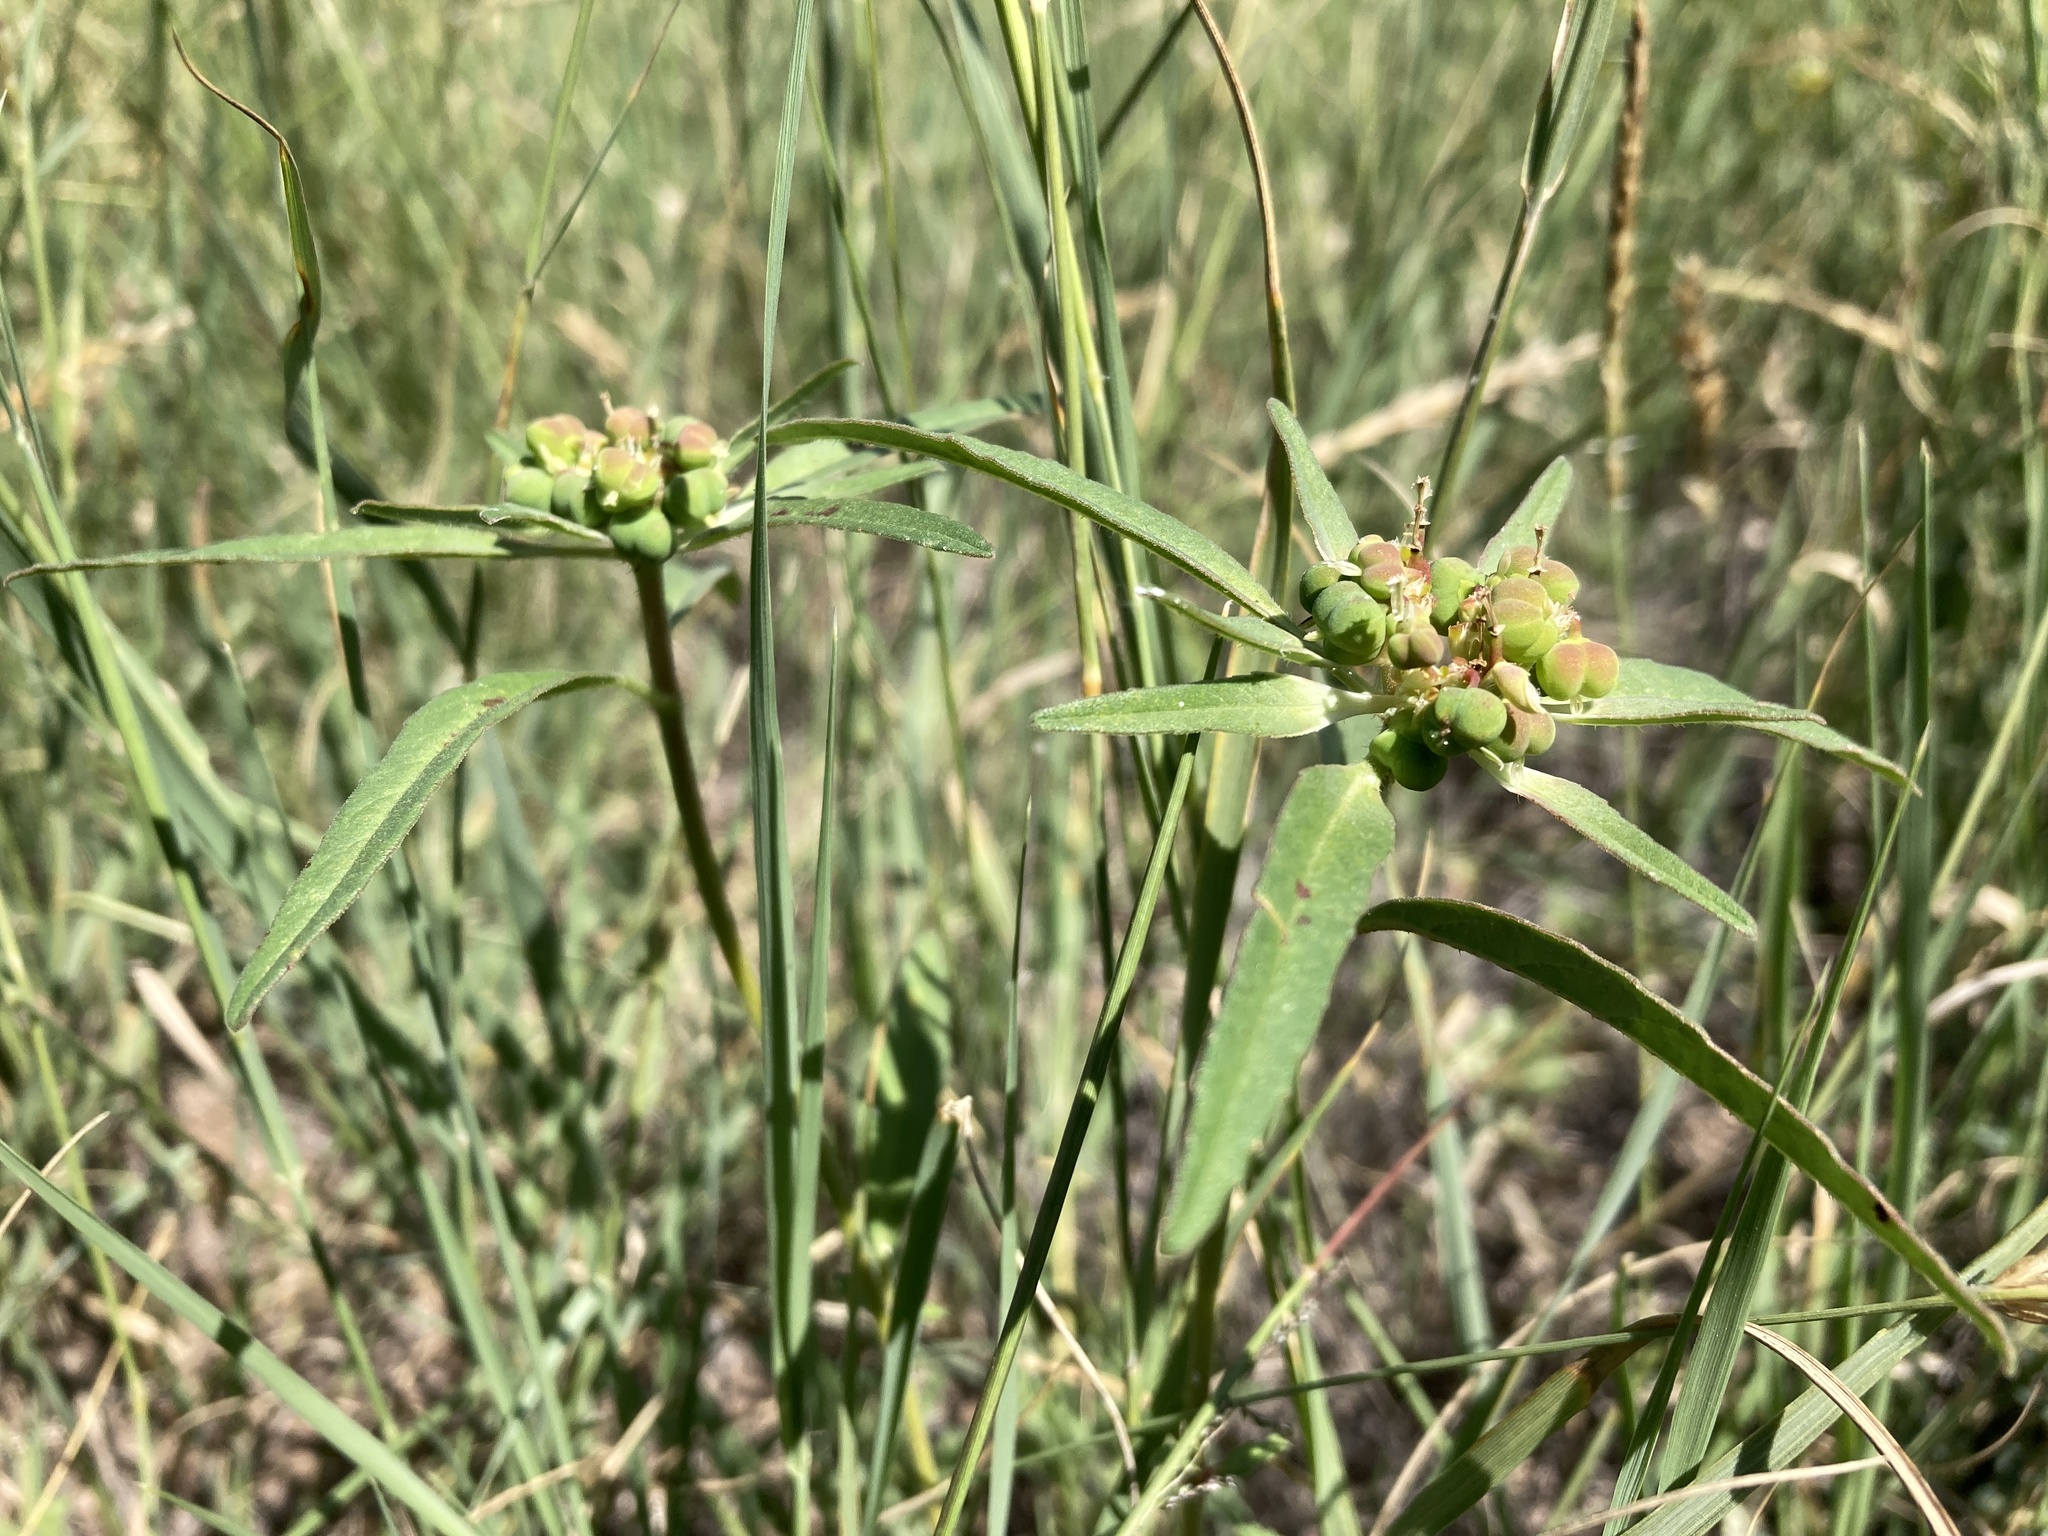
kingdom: Plantae
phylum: Tracheophyta
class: Magnoliopsida
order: Malpighiales
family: Euphorbiaceae
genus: Euphorbia
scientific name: Euphorbia davidii
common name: David's spurge
